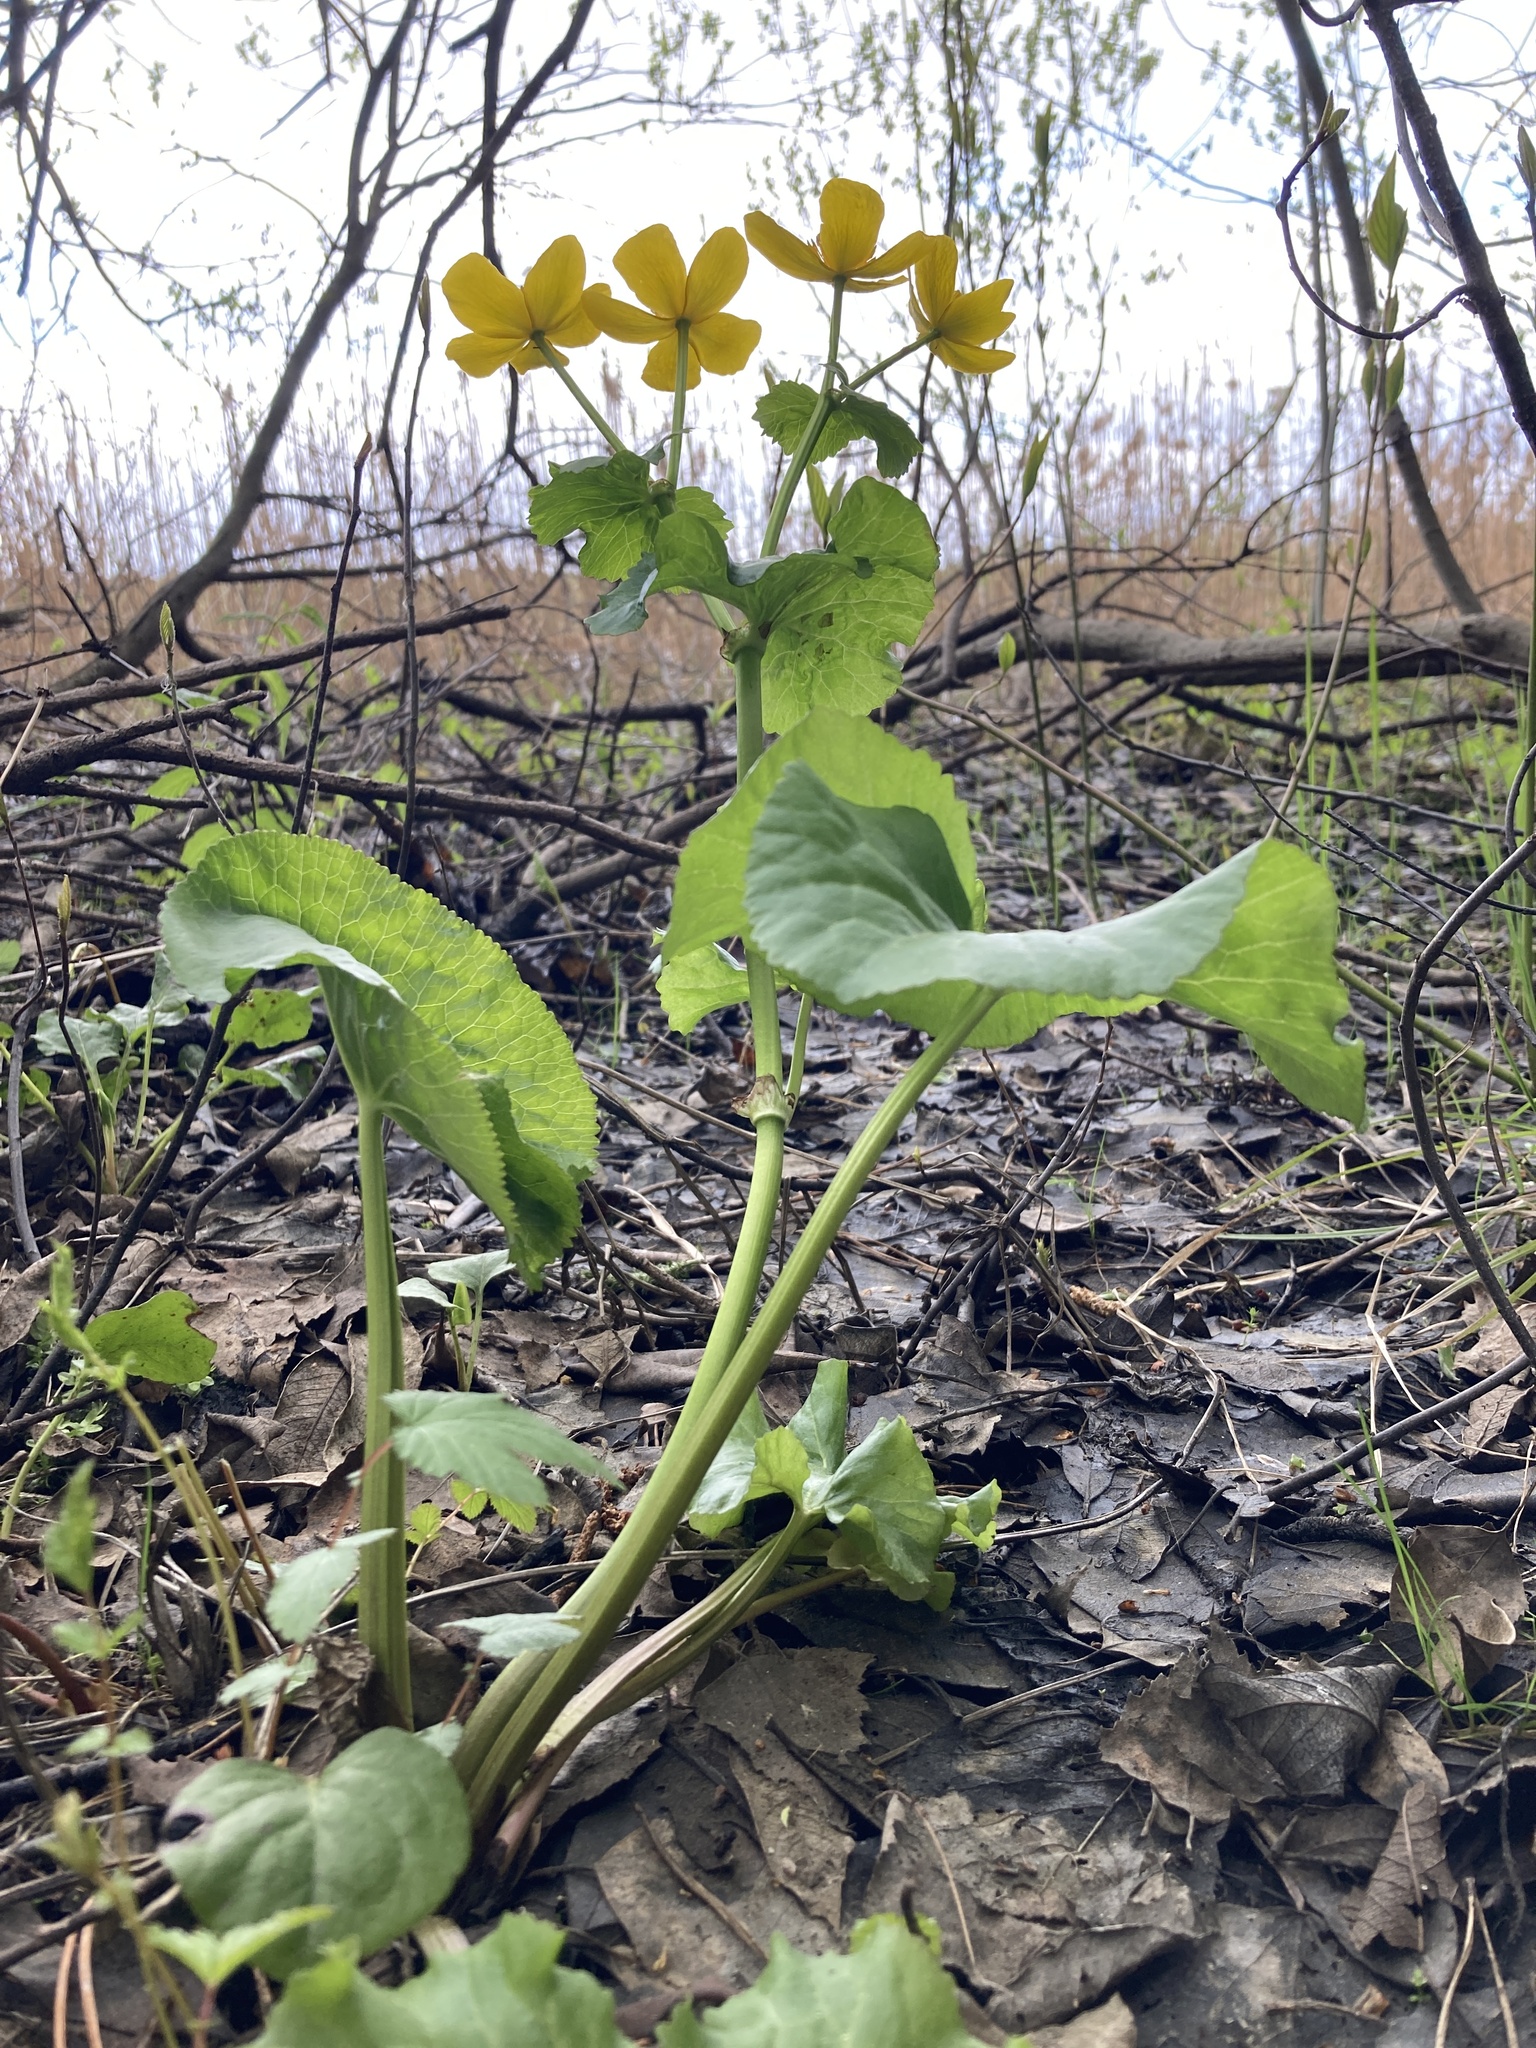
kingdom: Plantae
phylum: Tracheophyta
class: Magnoliopsida
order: Ranunculales
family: Ranunculaceae
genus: Caltha
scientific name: Caltha palustris
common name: Marsh marigold
